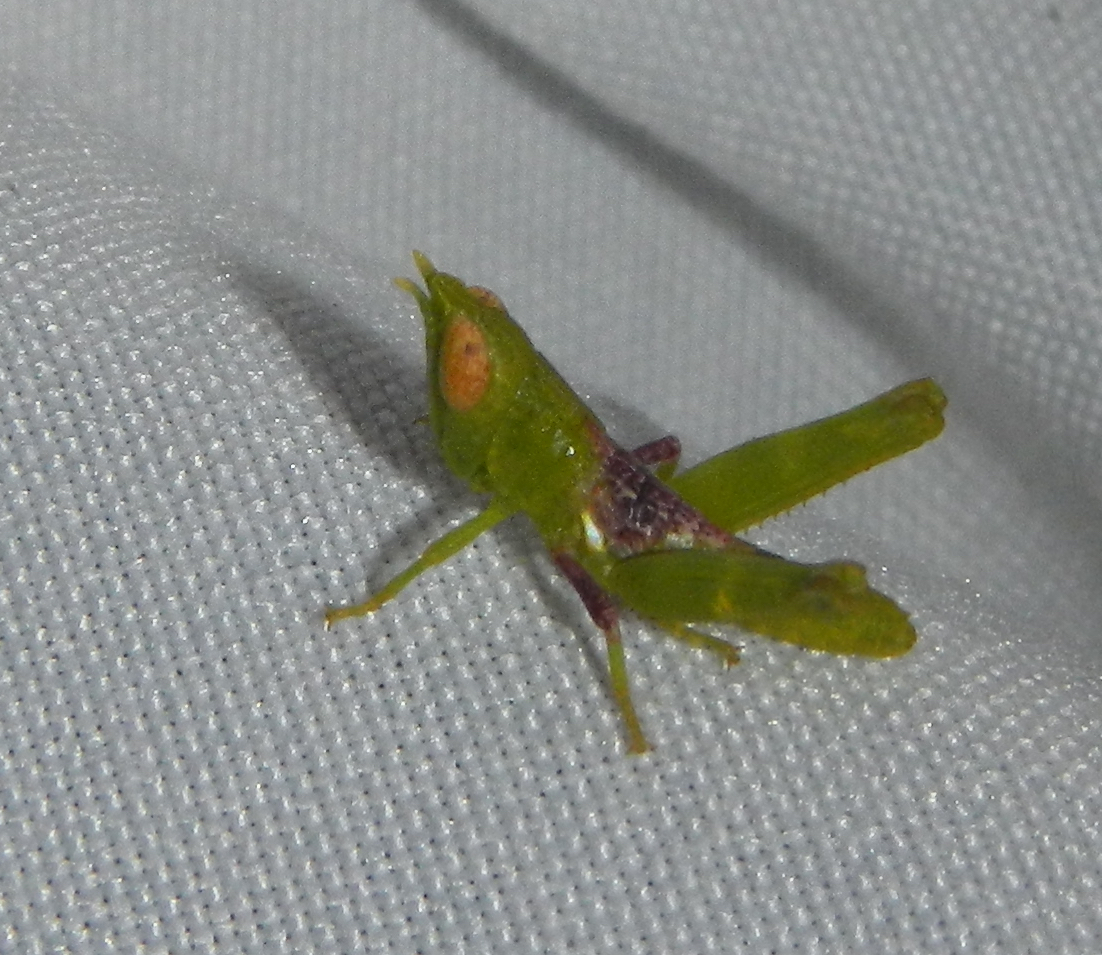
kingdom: Animalia
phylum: Arthropoda
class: Insecta
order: Orthoptera
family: Acrididae
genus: Bootettix
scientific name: Bootettix argentatus
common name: Creosote bush grasshopper
